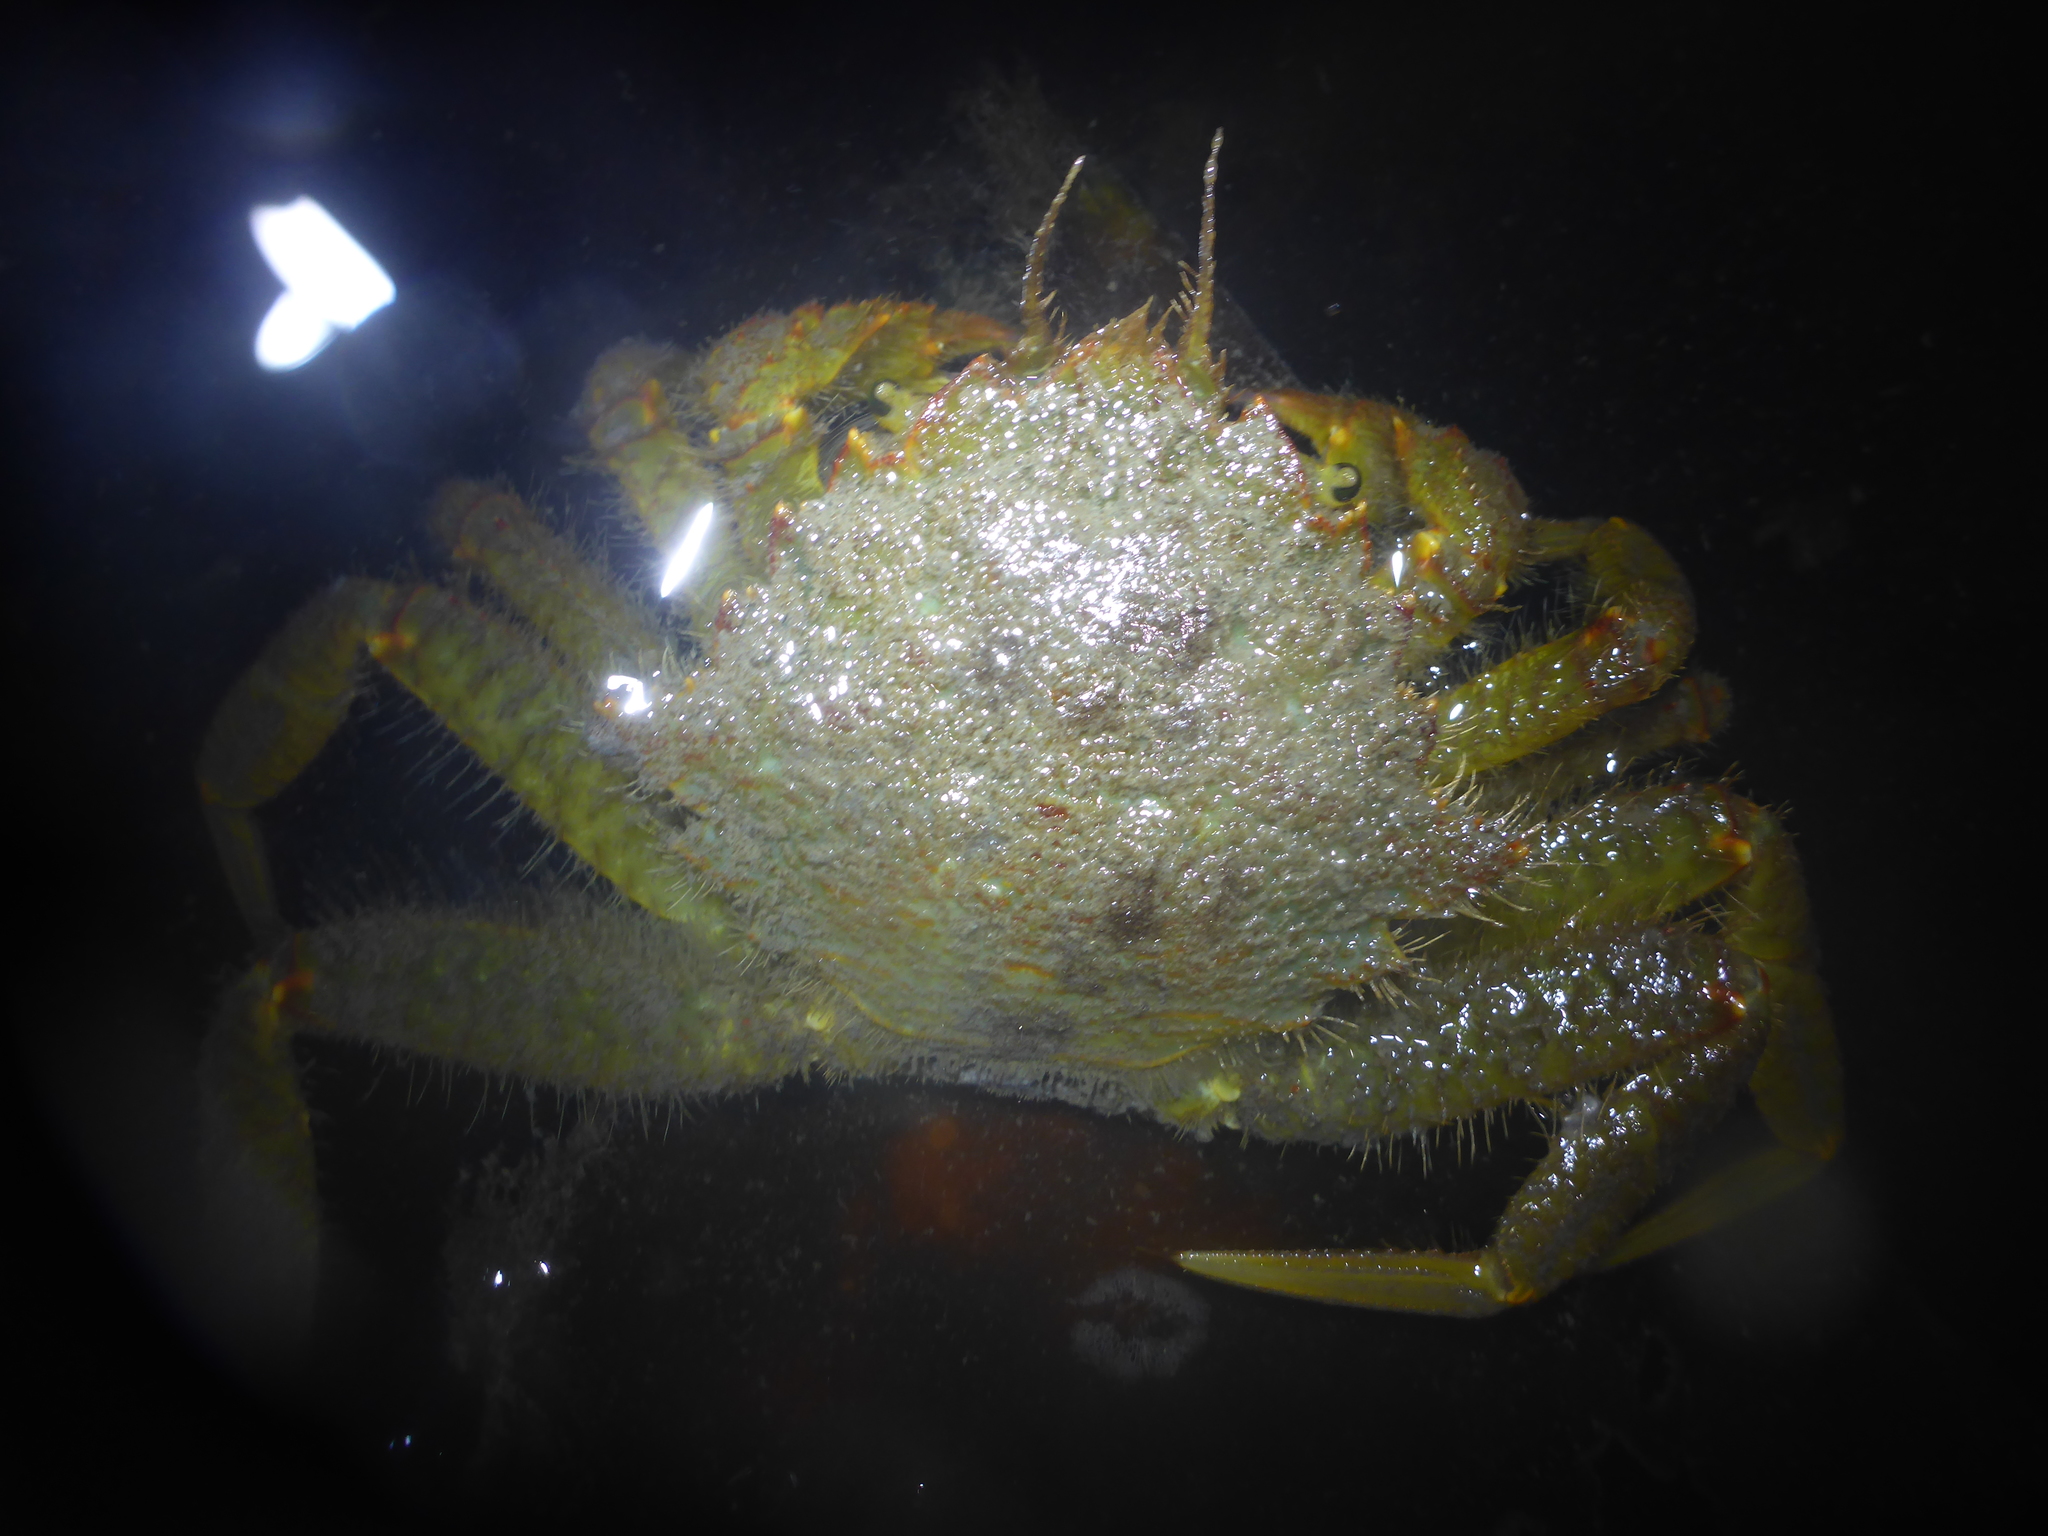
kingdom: Animalia
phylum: Arthropoda
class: Malacostraca
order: Decapoda
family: Cheiragonidae
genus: Telmessus
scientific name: Telmessus cheiragonus
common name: Helmet crab
